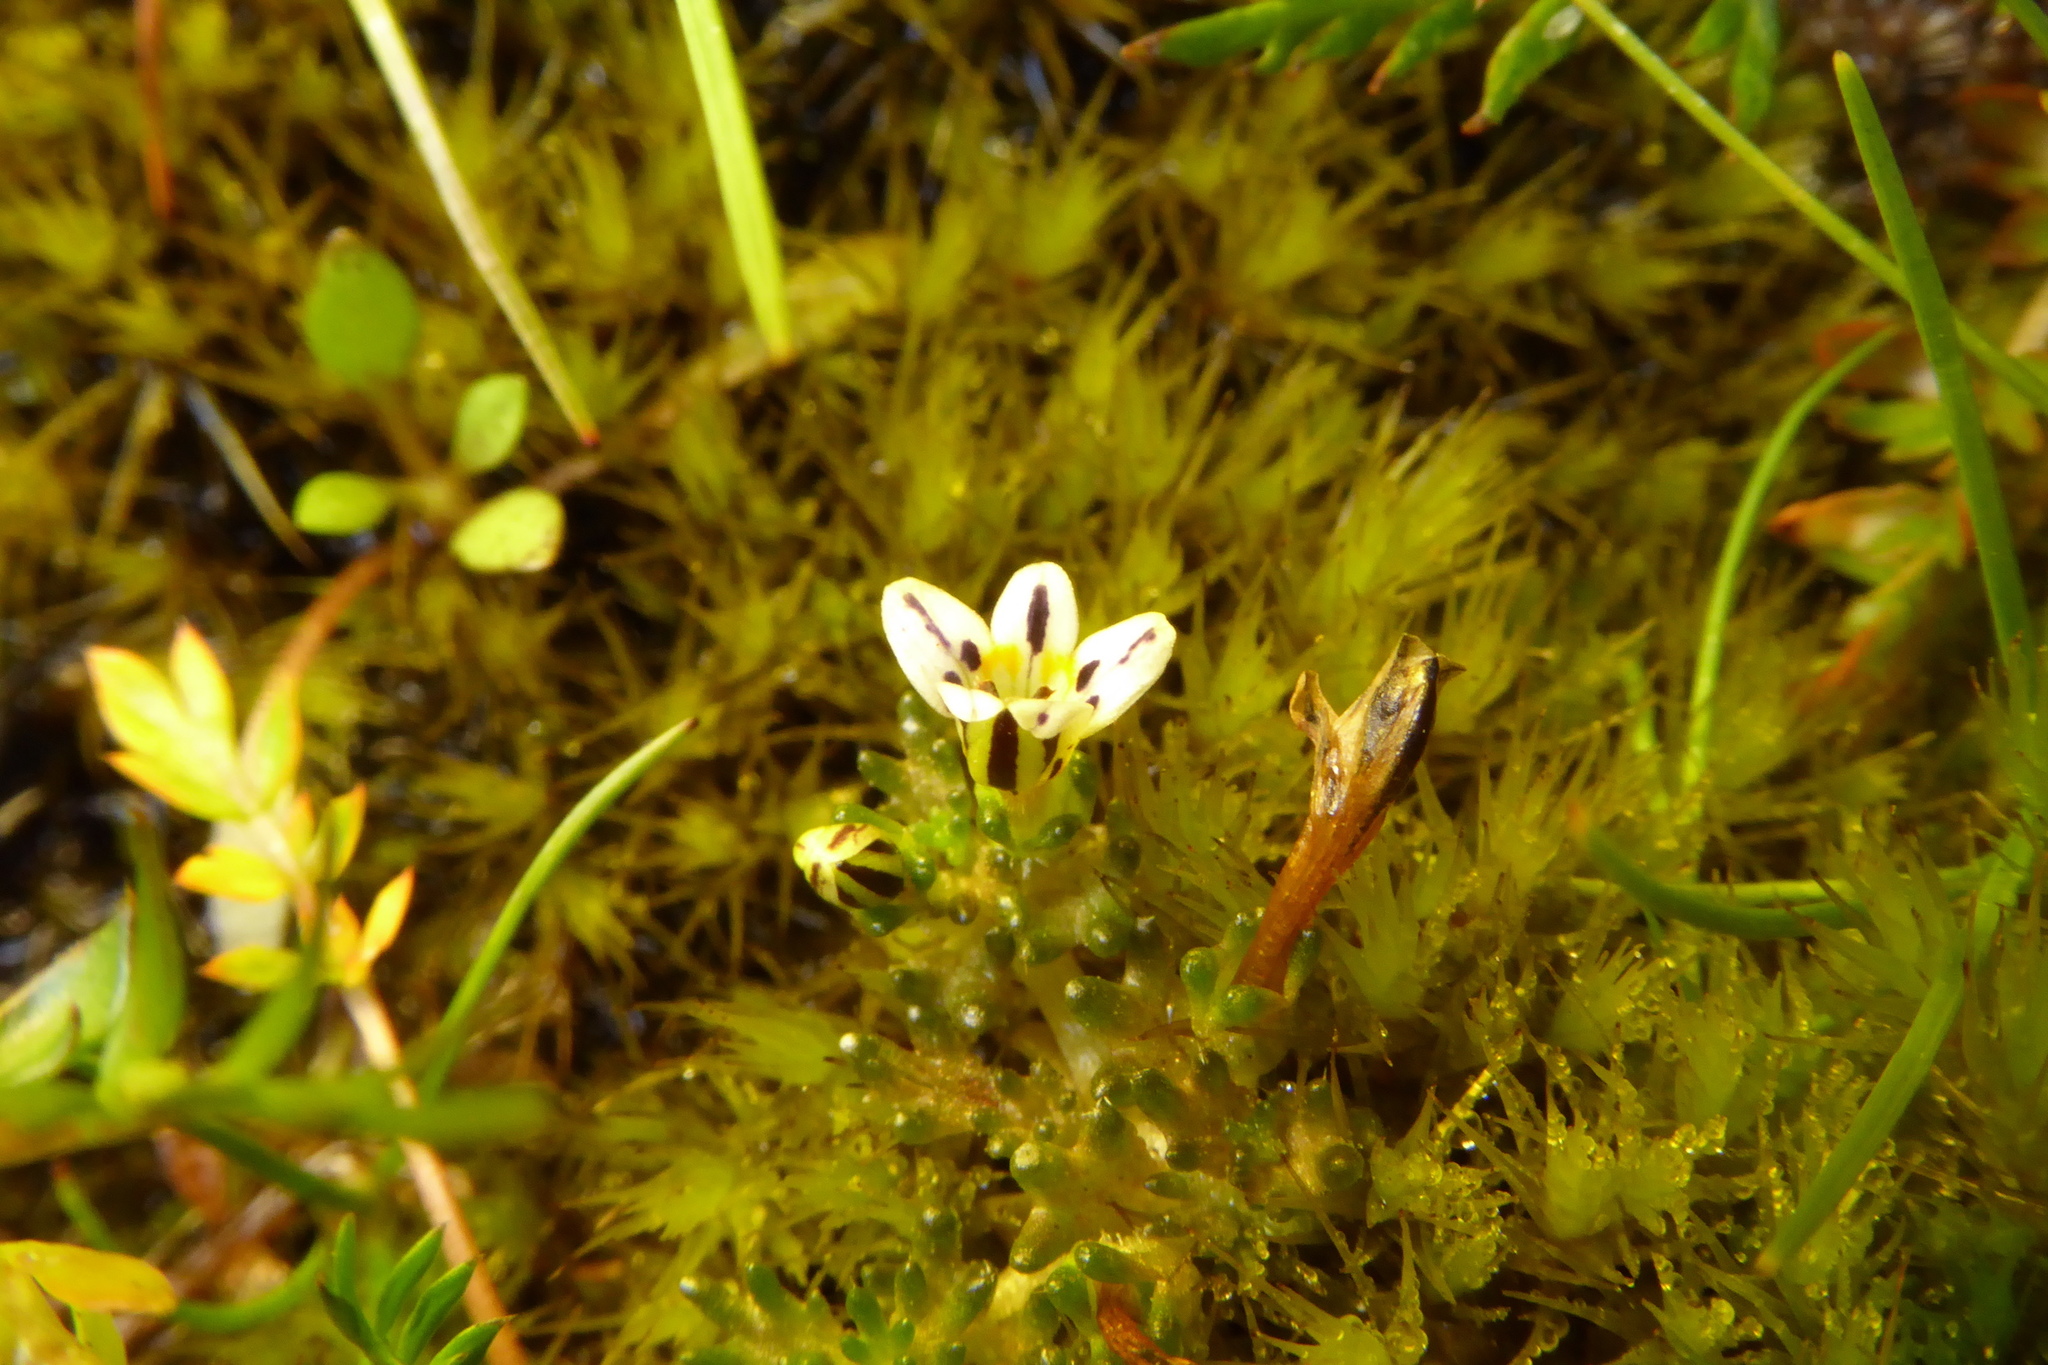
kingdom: Plantae
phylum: Tracheophyta
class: Magnoliopsida
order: Lamiales
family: Orobanchaceae
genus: Euphrasia
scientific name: Euphrasia dyeri
